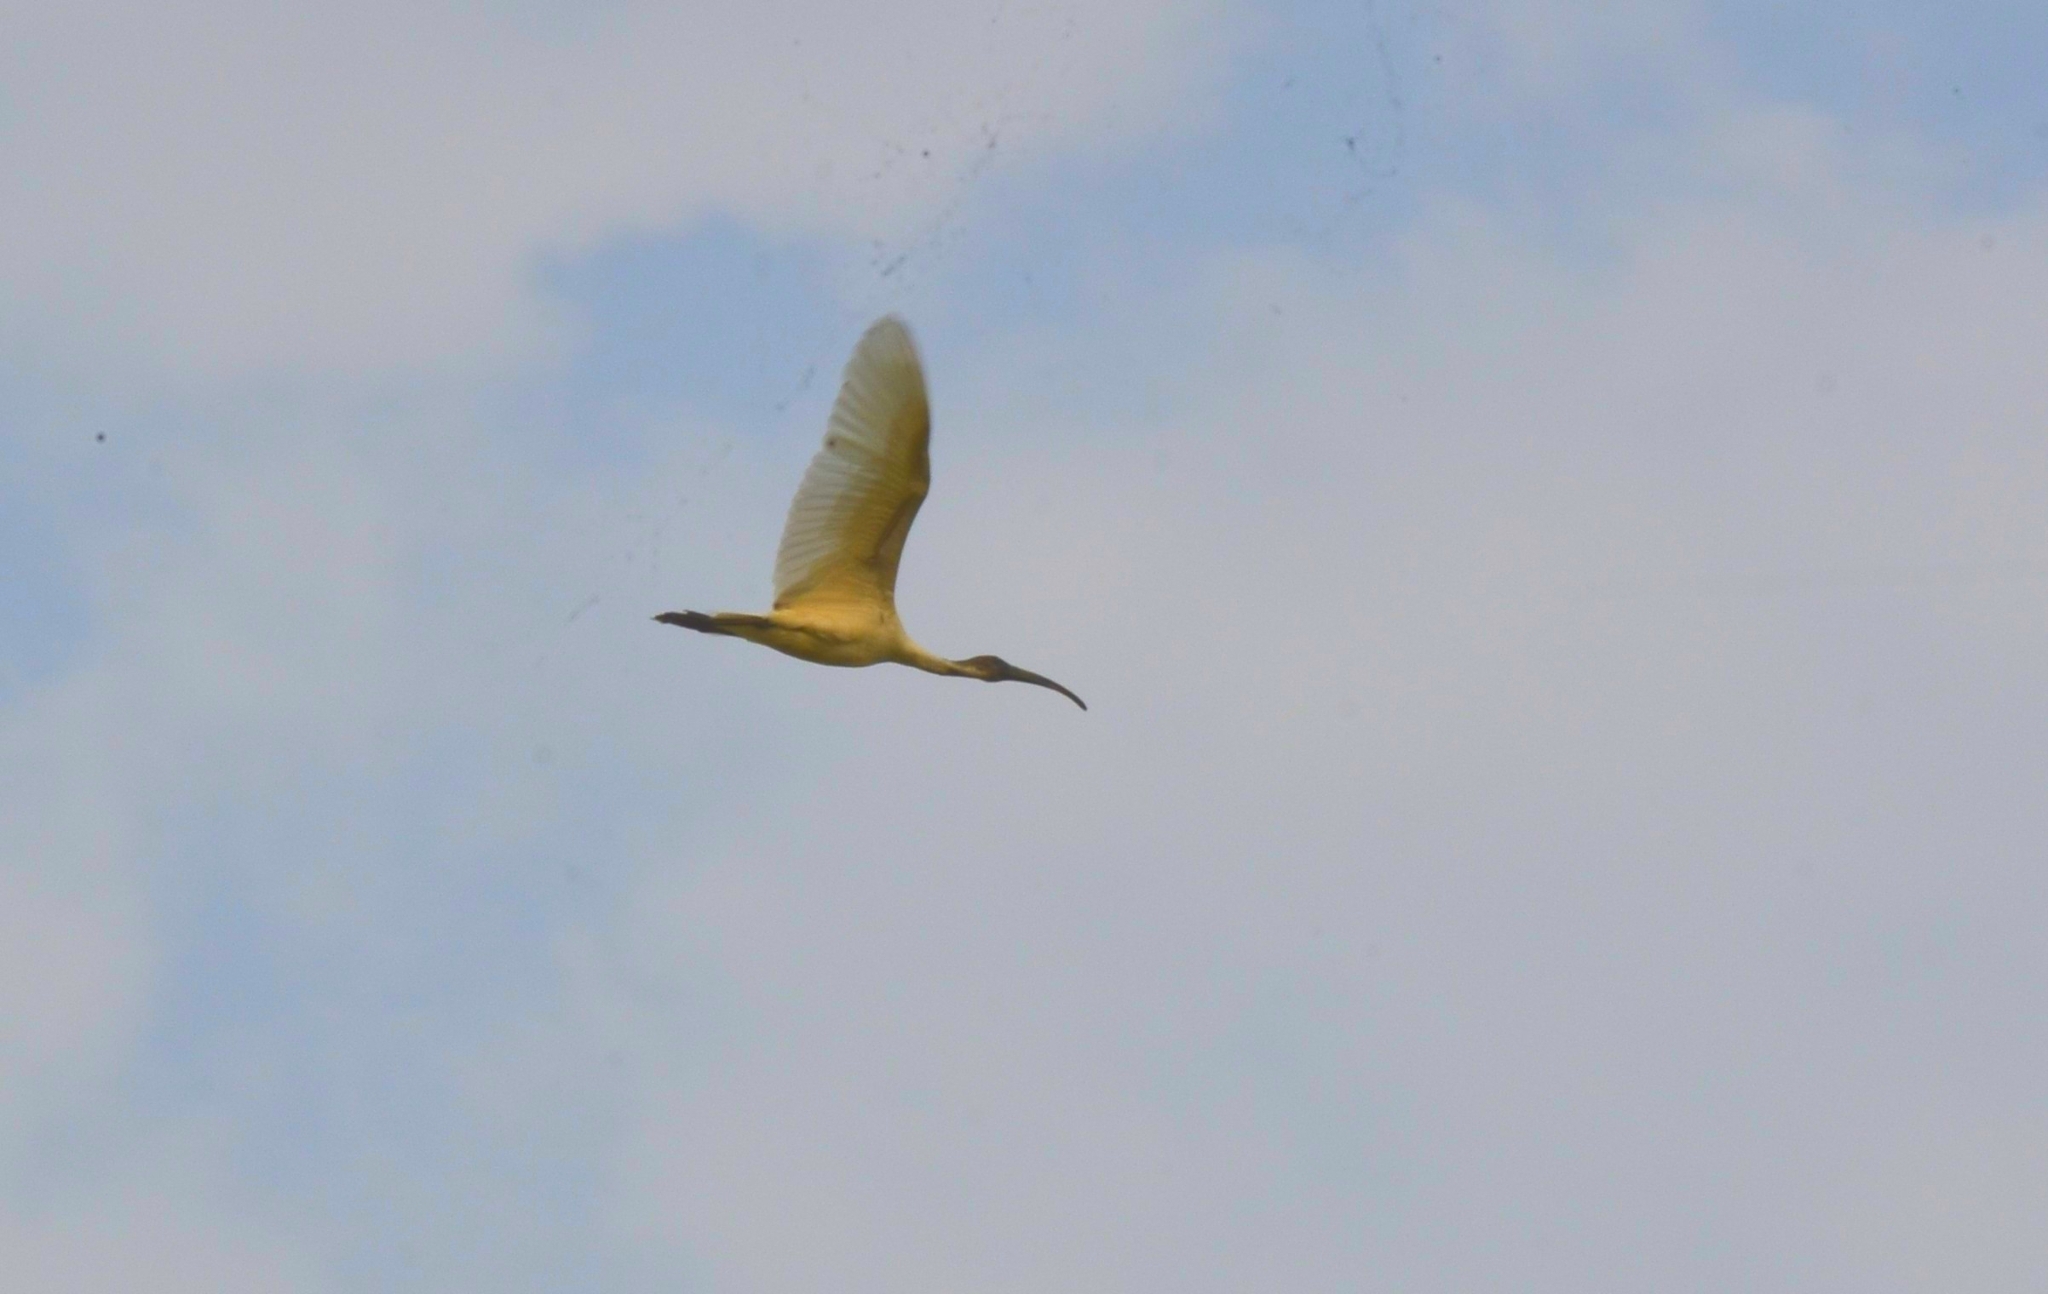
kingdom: Animalia
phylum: Chordata
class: Aves
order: Pelecaniformes
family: Threskiornithidae
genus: Threskiornis
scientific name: Threskiornis melanocephalus
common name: Black-headed ibis
